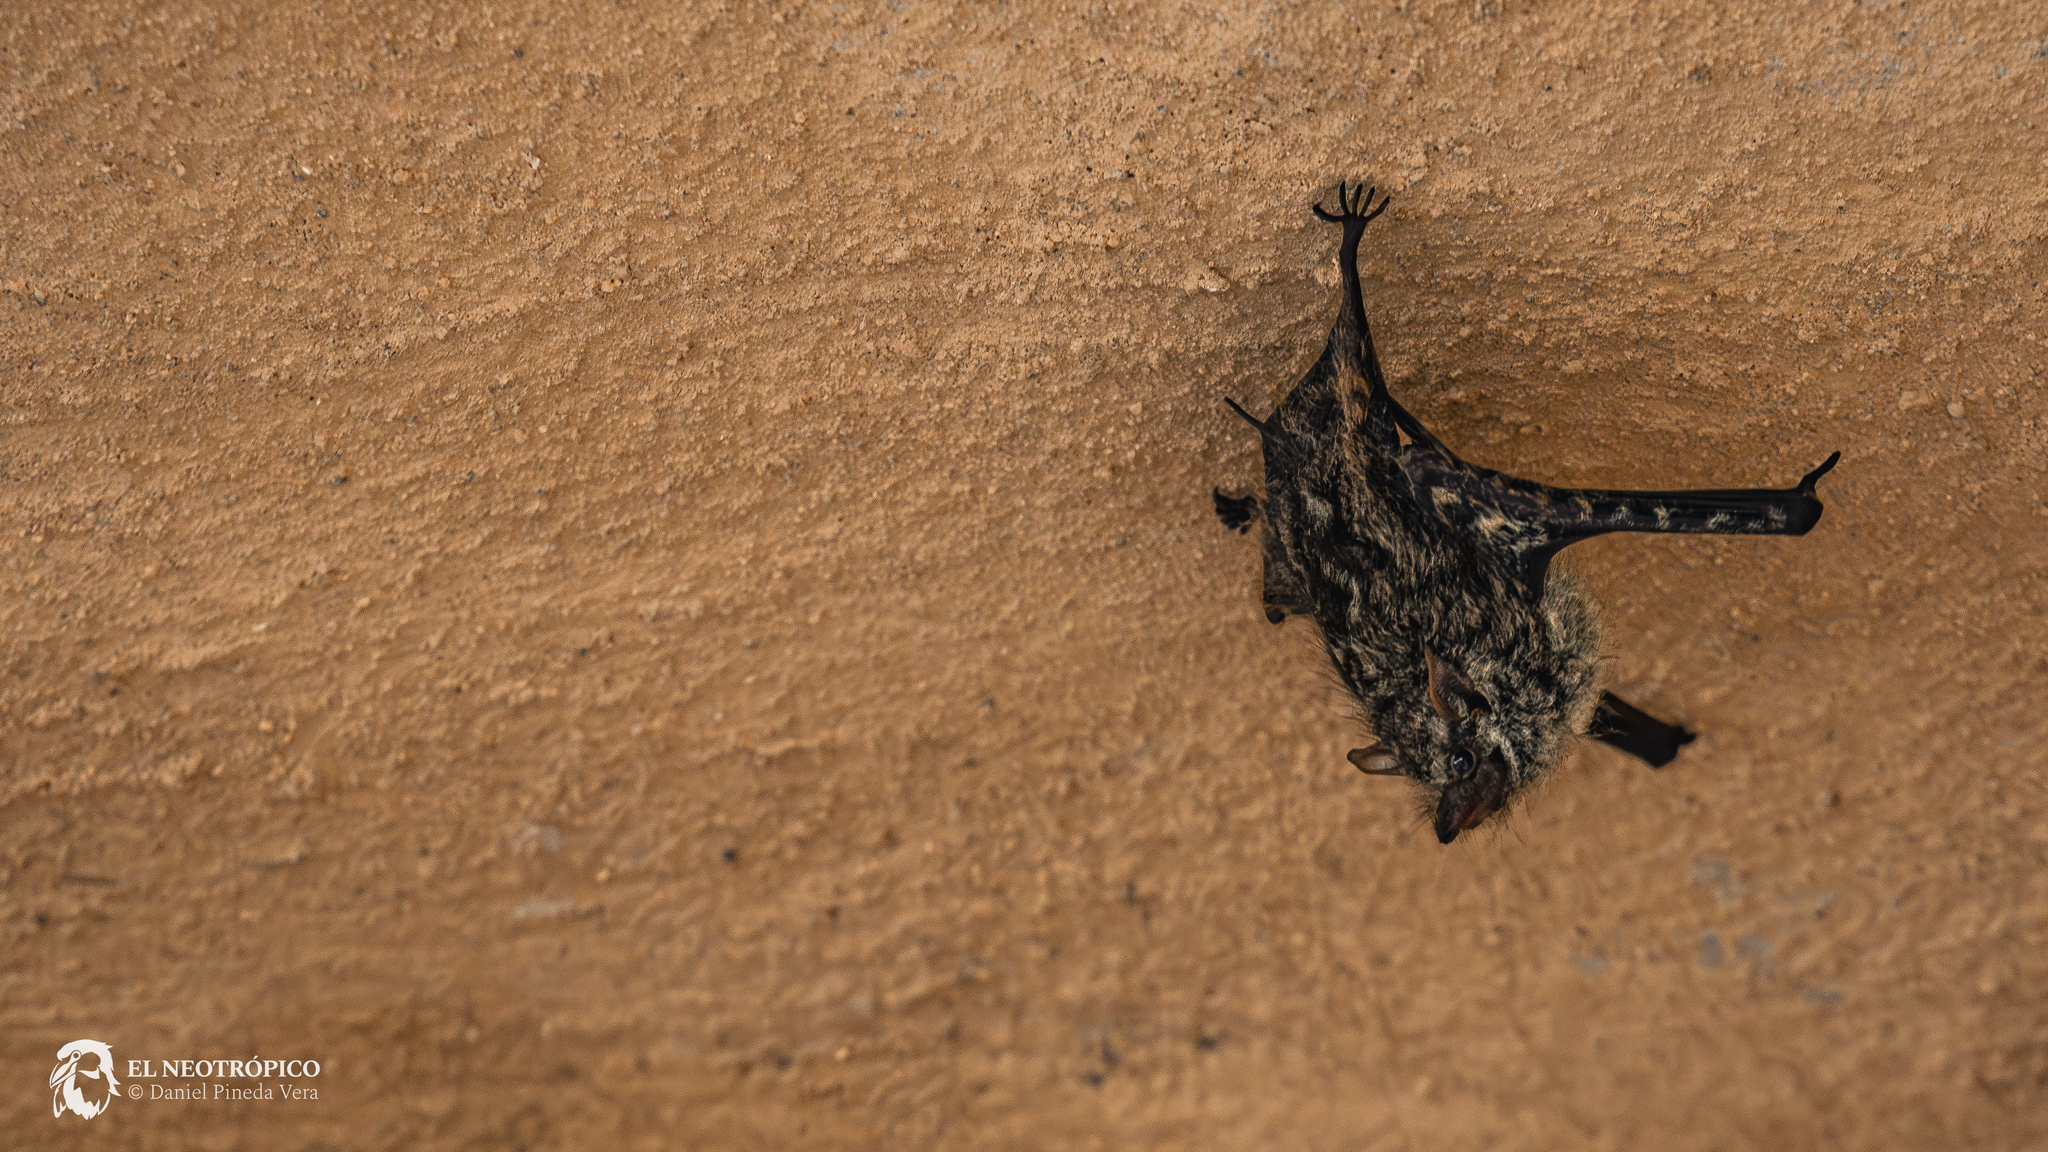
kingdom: Animalia
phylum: Chordata
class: Mammalia
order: Chiroptera
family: Emballonuridae
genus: Rhynchonycteris
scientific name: Rhynchonycteris naso
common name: Proboscis bat
